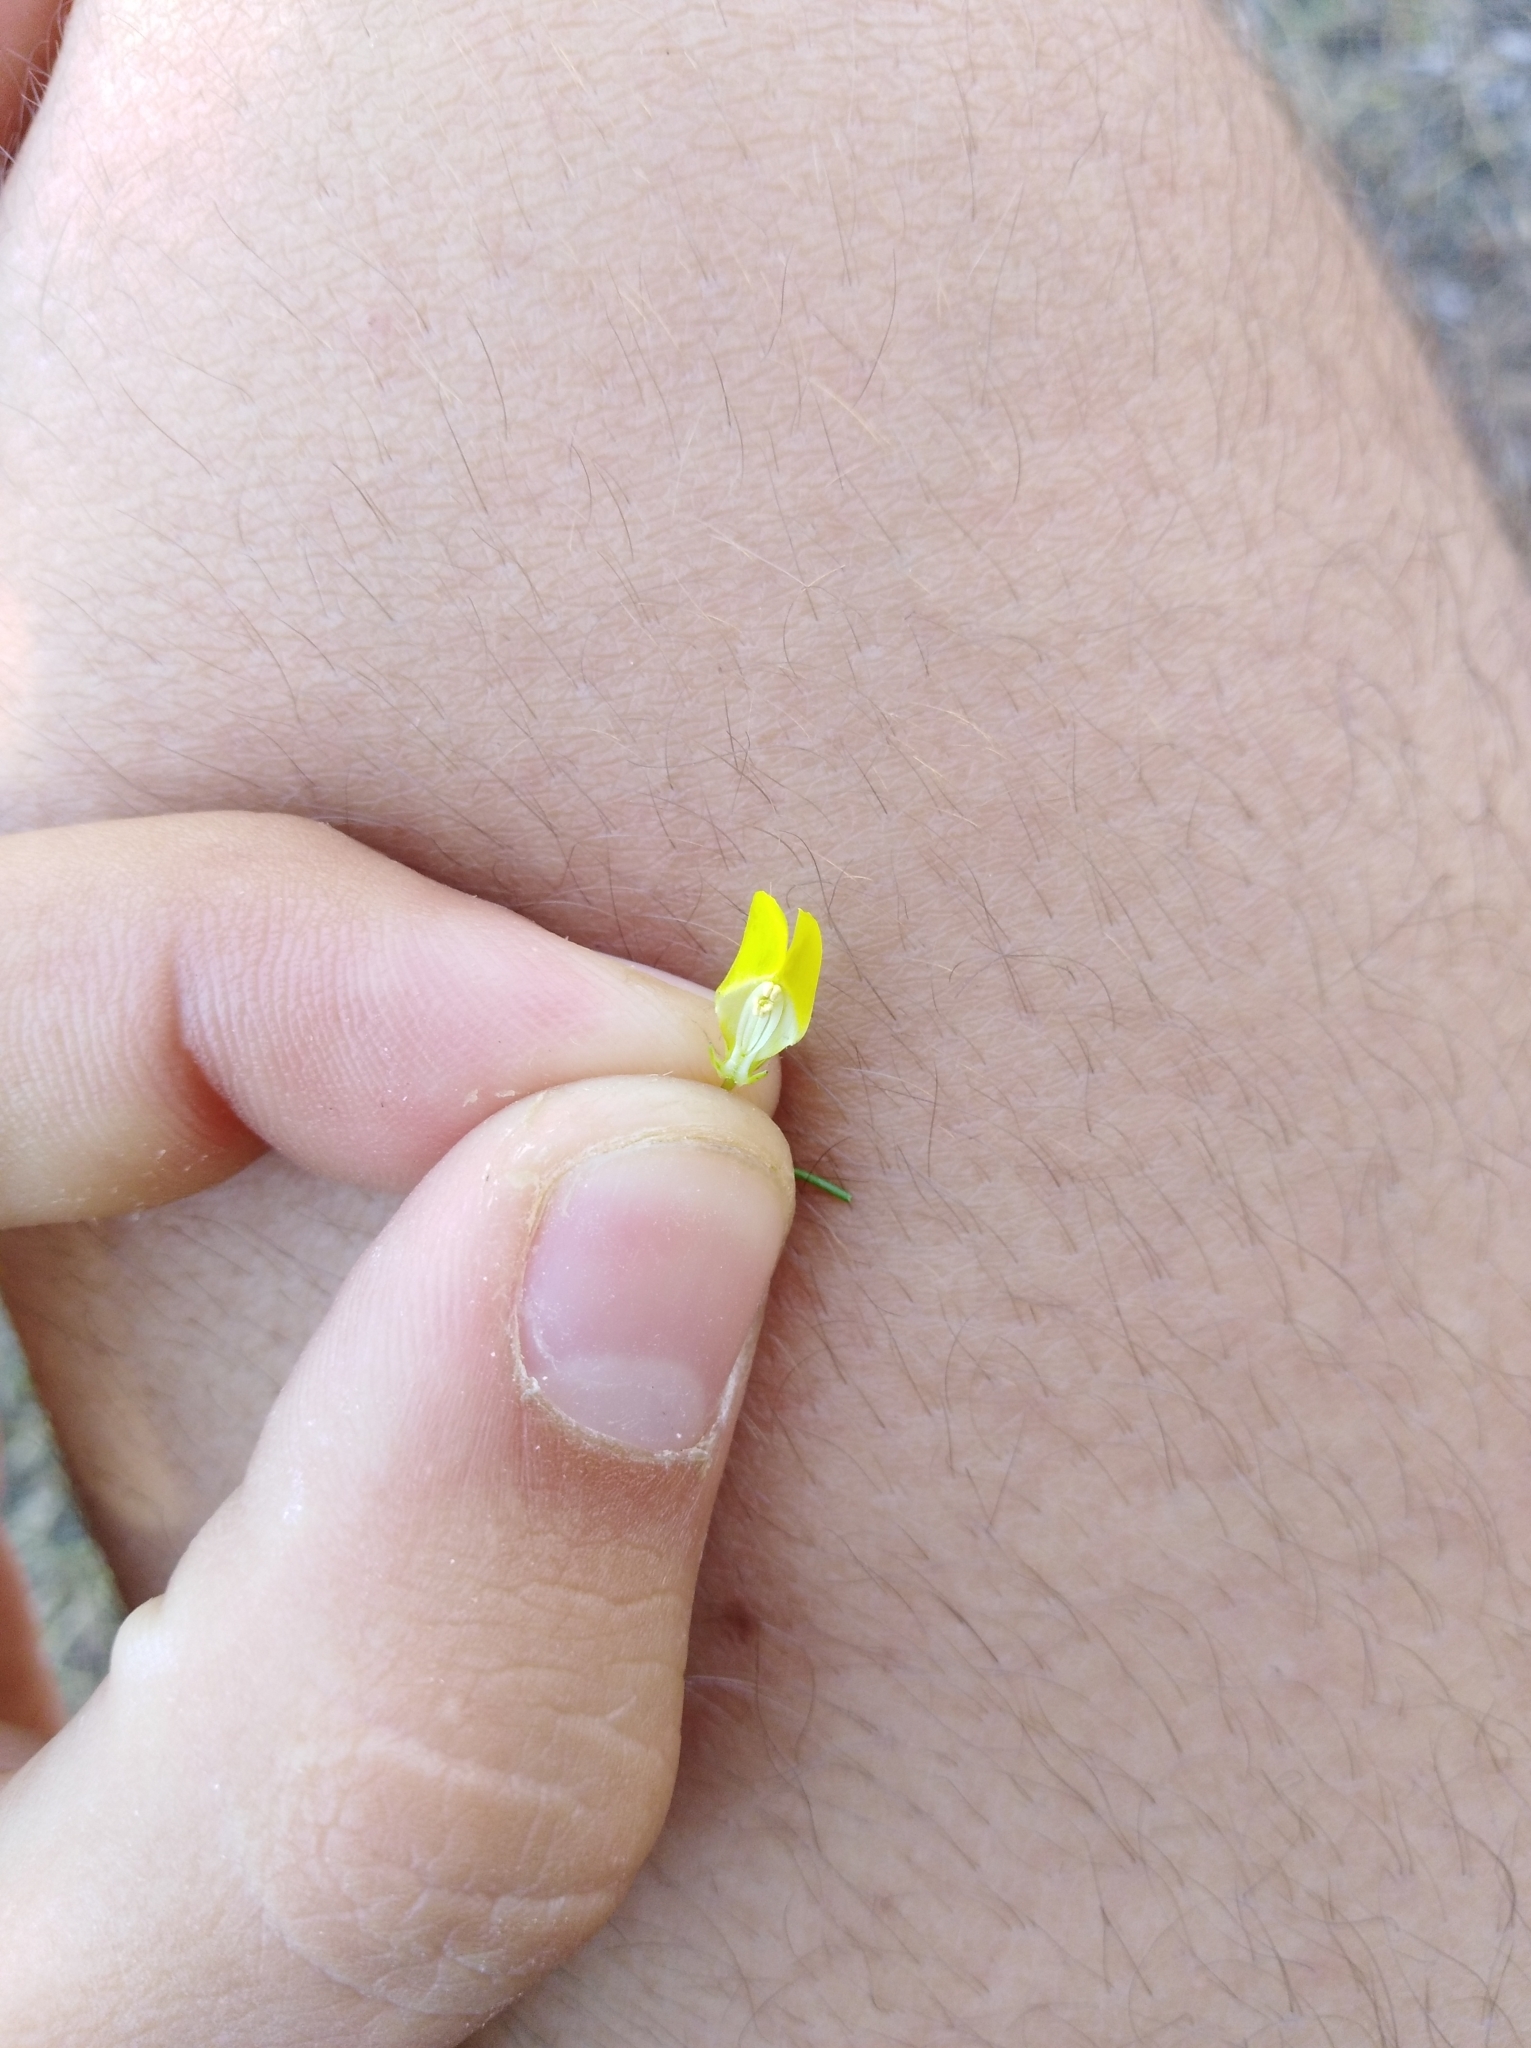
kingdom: Plantae
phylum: Tracheophyta
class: Magnoliopsida
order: Lamiales
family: Plantaginaceae
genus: Linaria
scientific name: Linaria spartea
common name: Ballast toadflax
